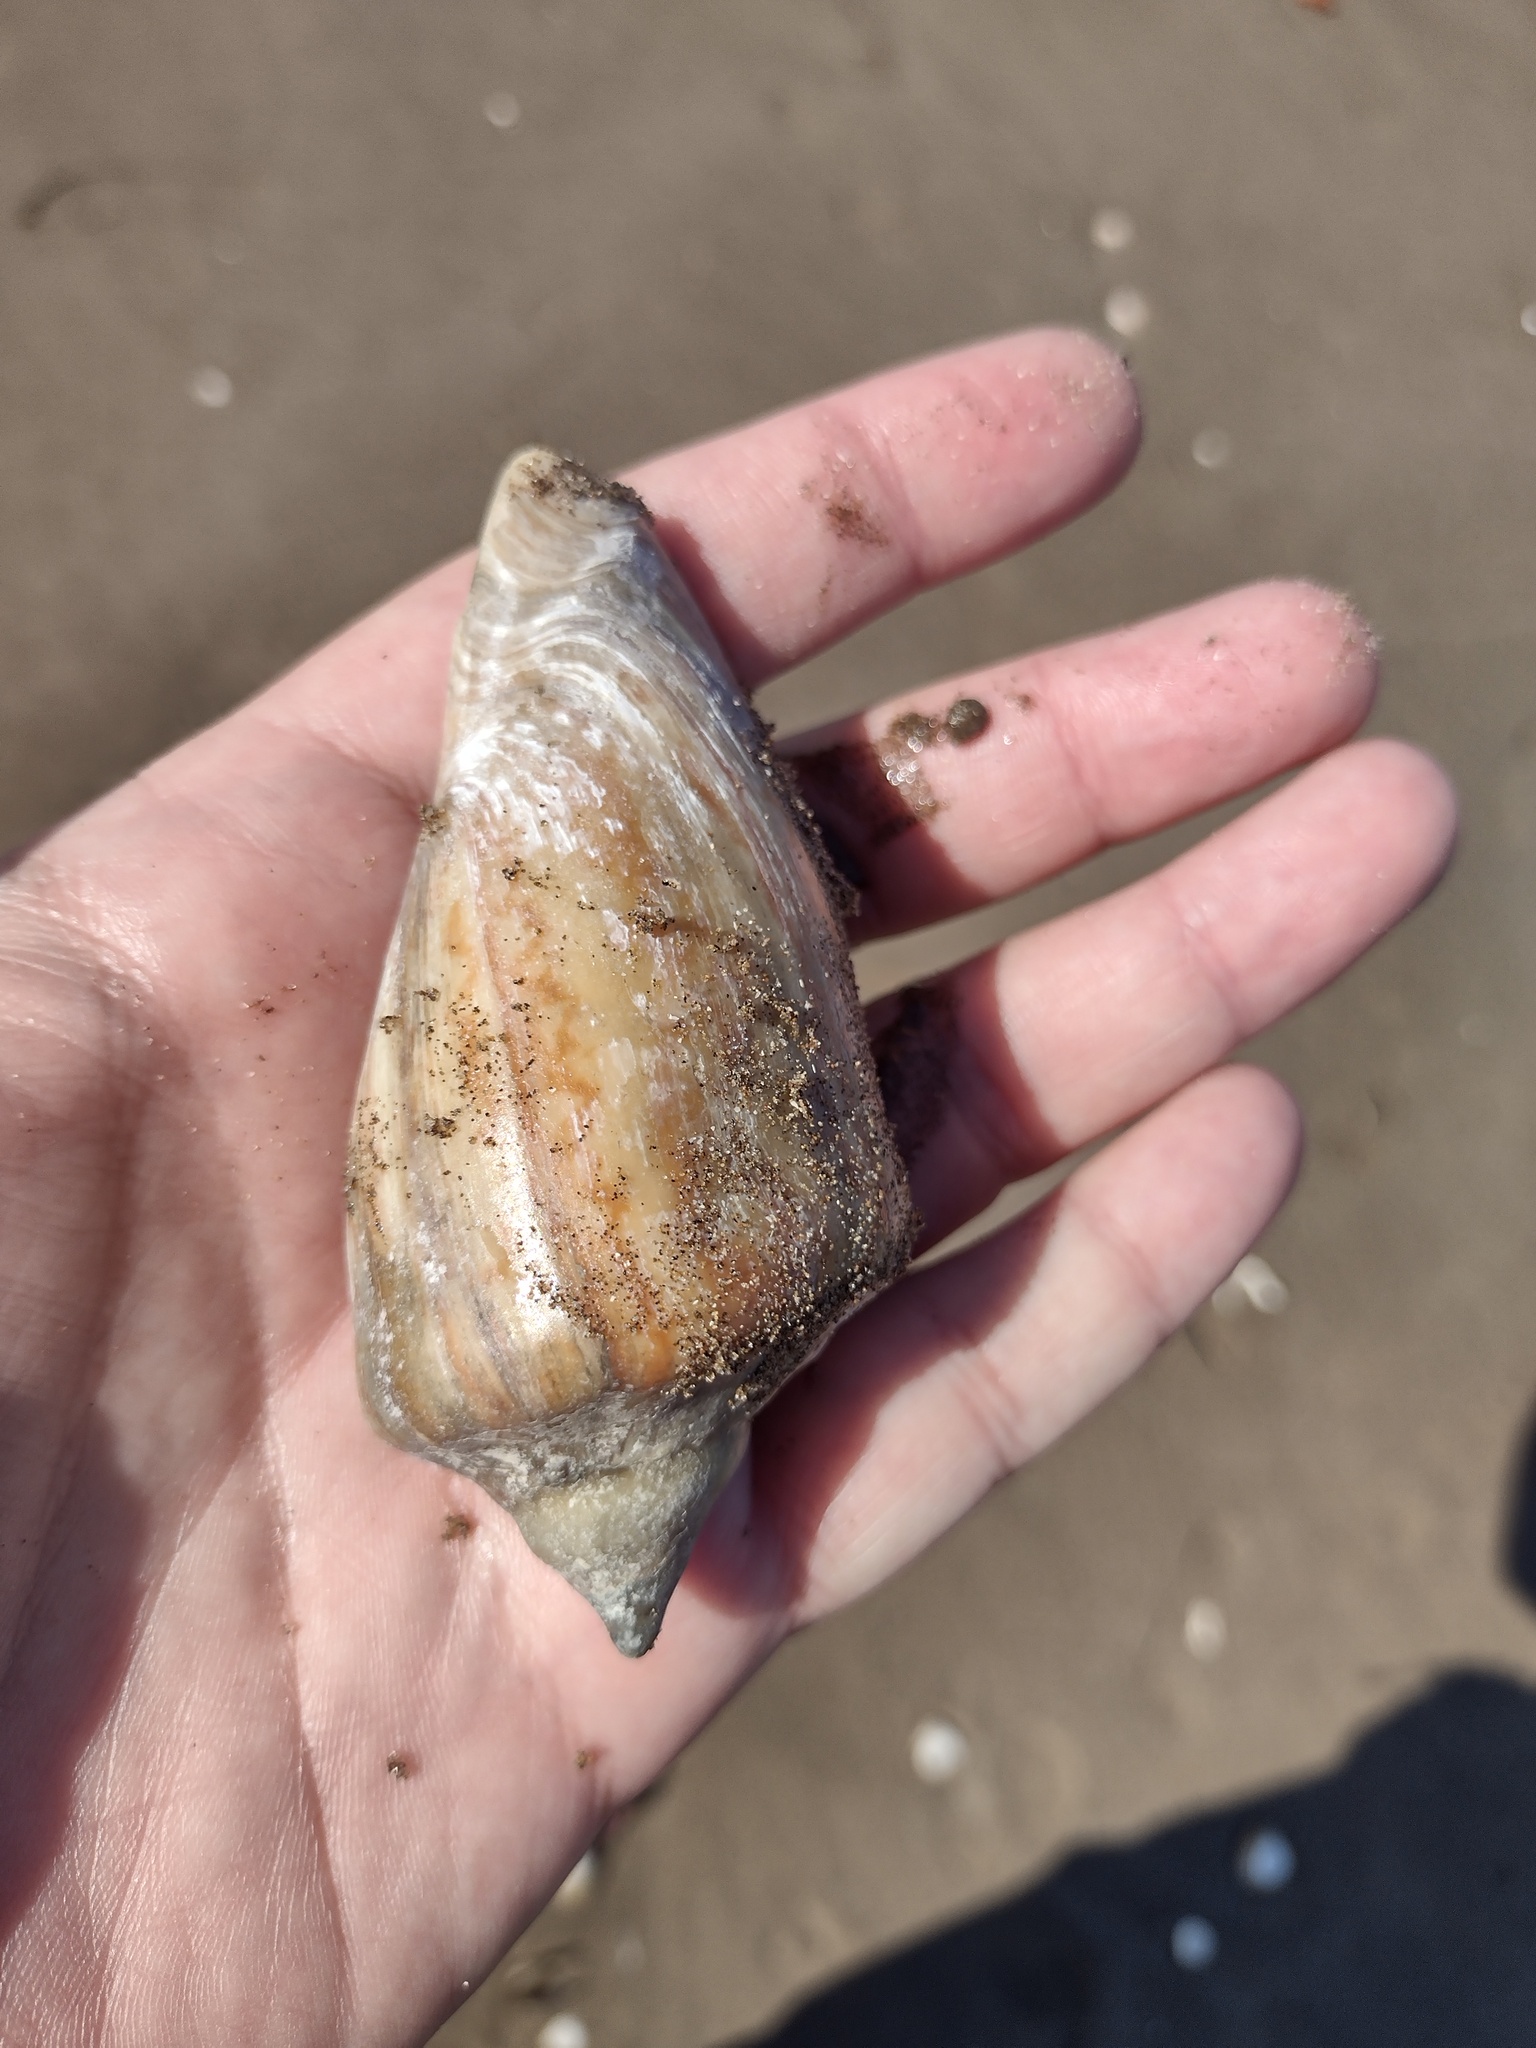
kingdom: Animalia
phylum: Mollusca
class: Gastropoda
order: Neogastropoda
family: Volutidae
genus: Zidona
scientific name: Zidona dufresnii
